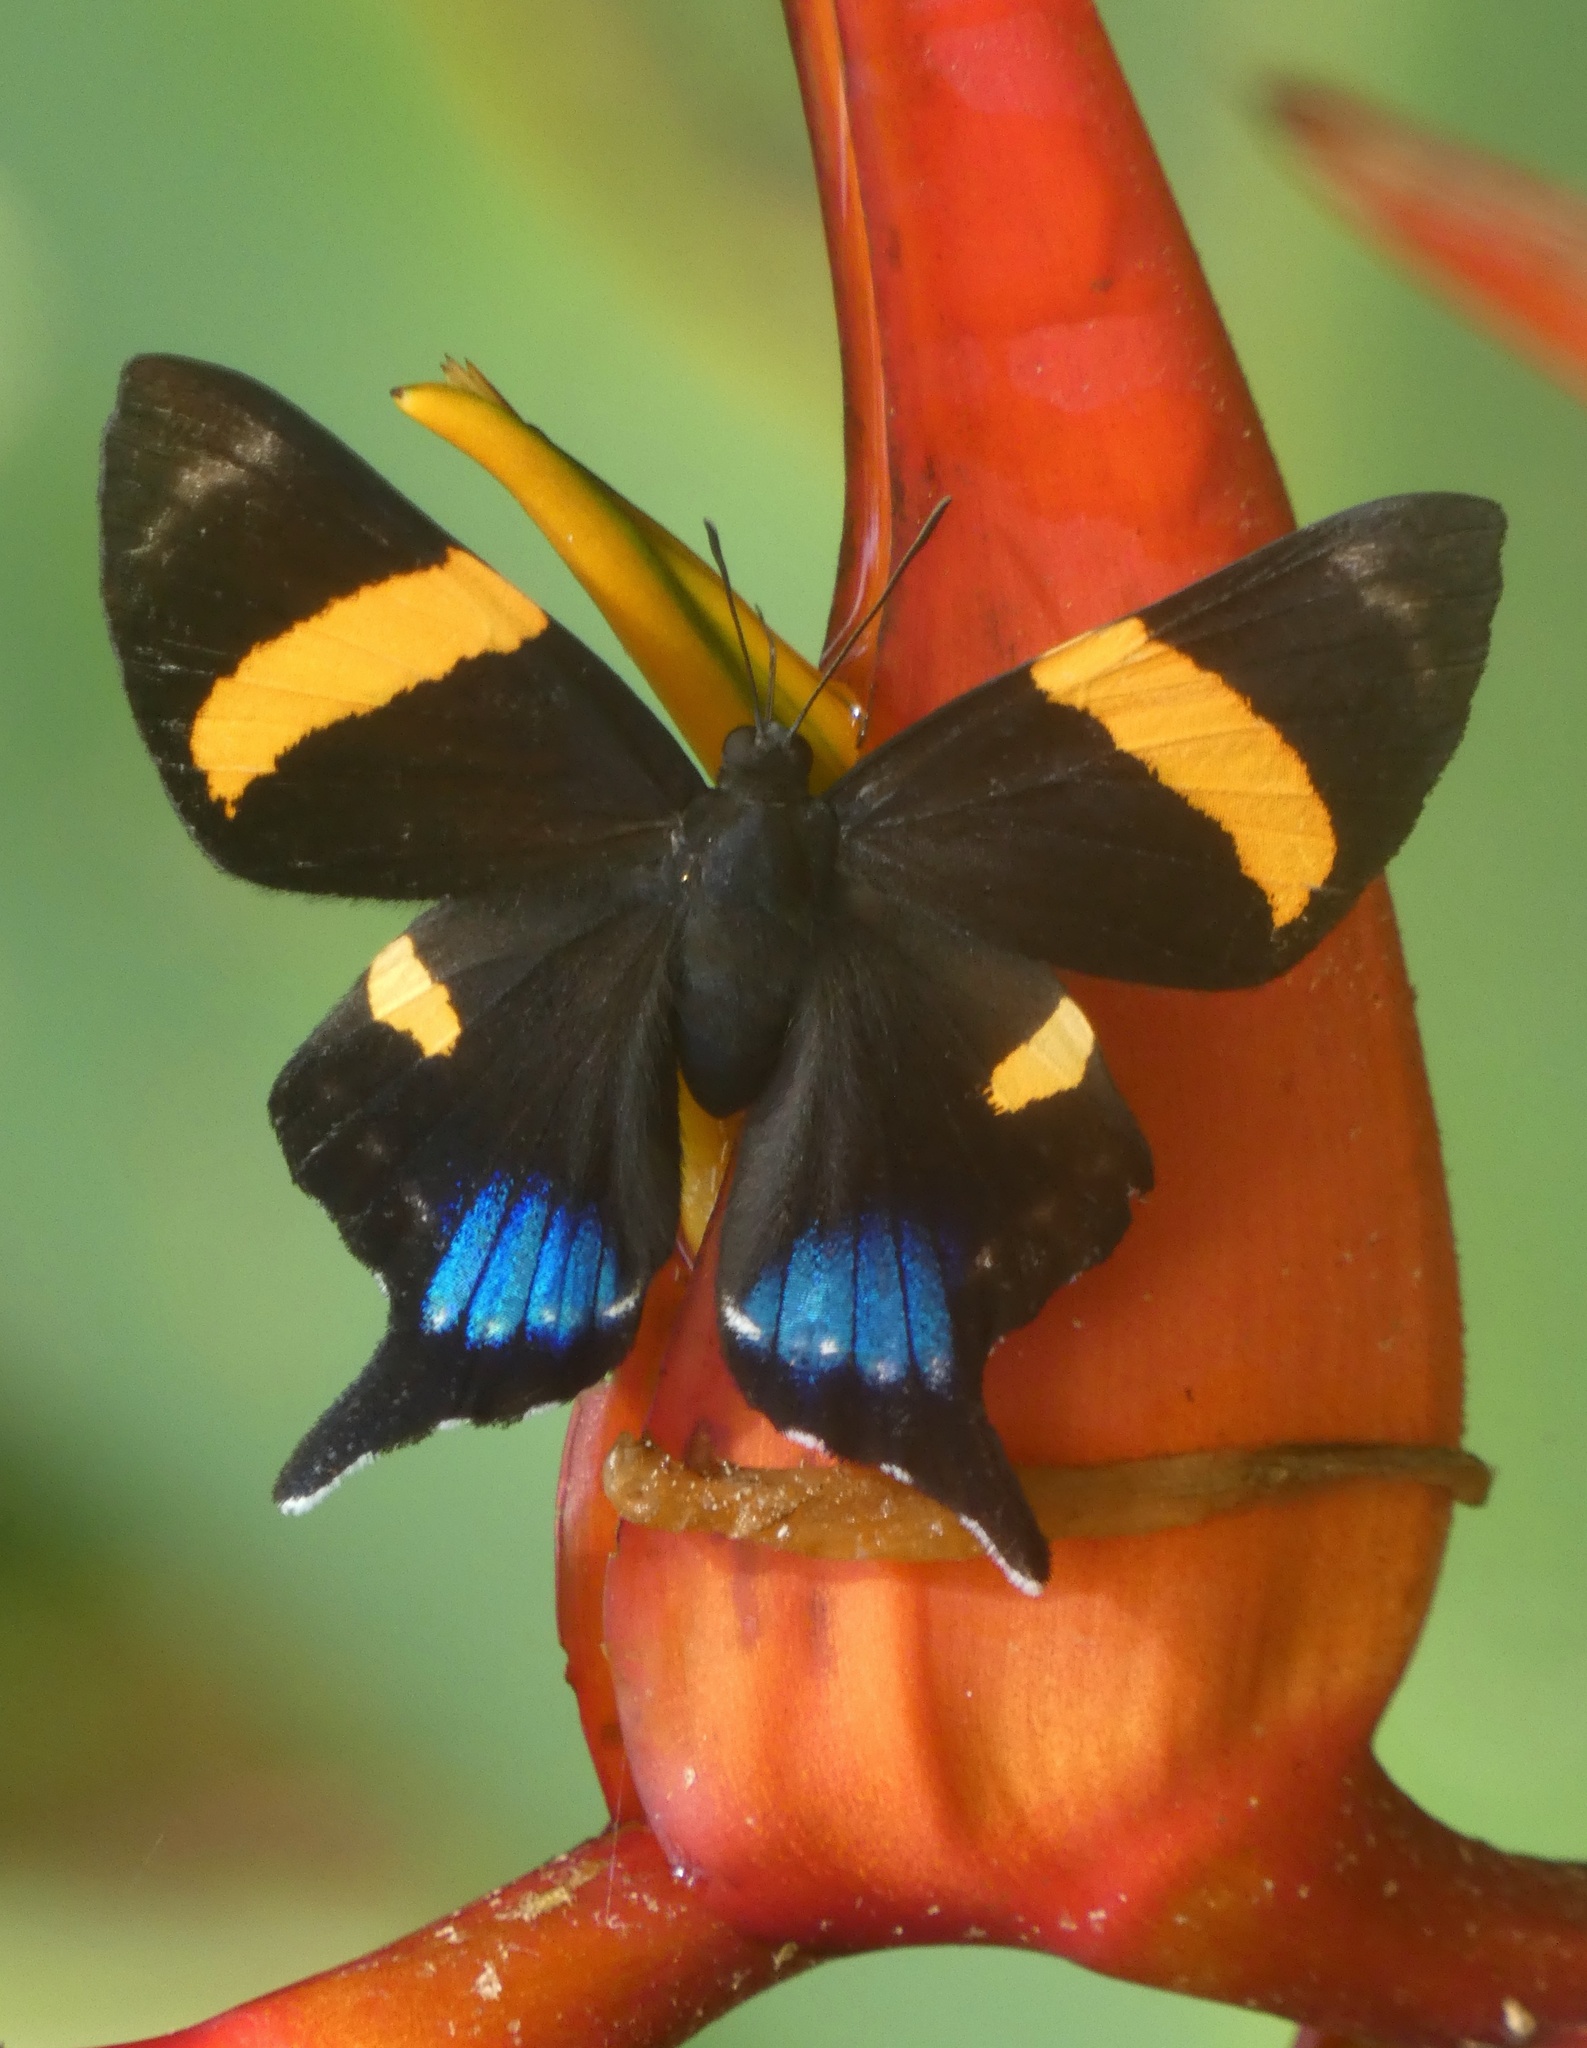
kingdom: Animalia
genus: Ancyluris
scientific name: Ancyluris inca
